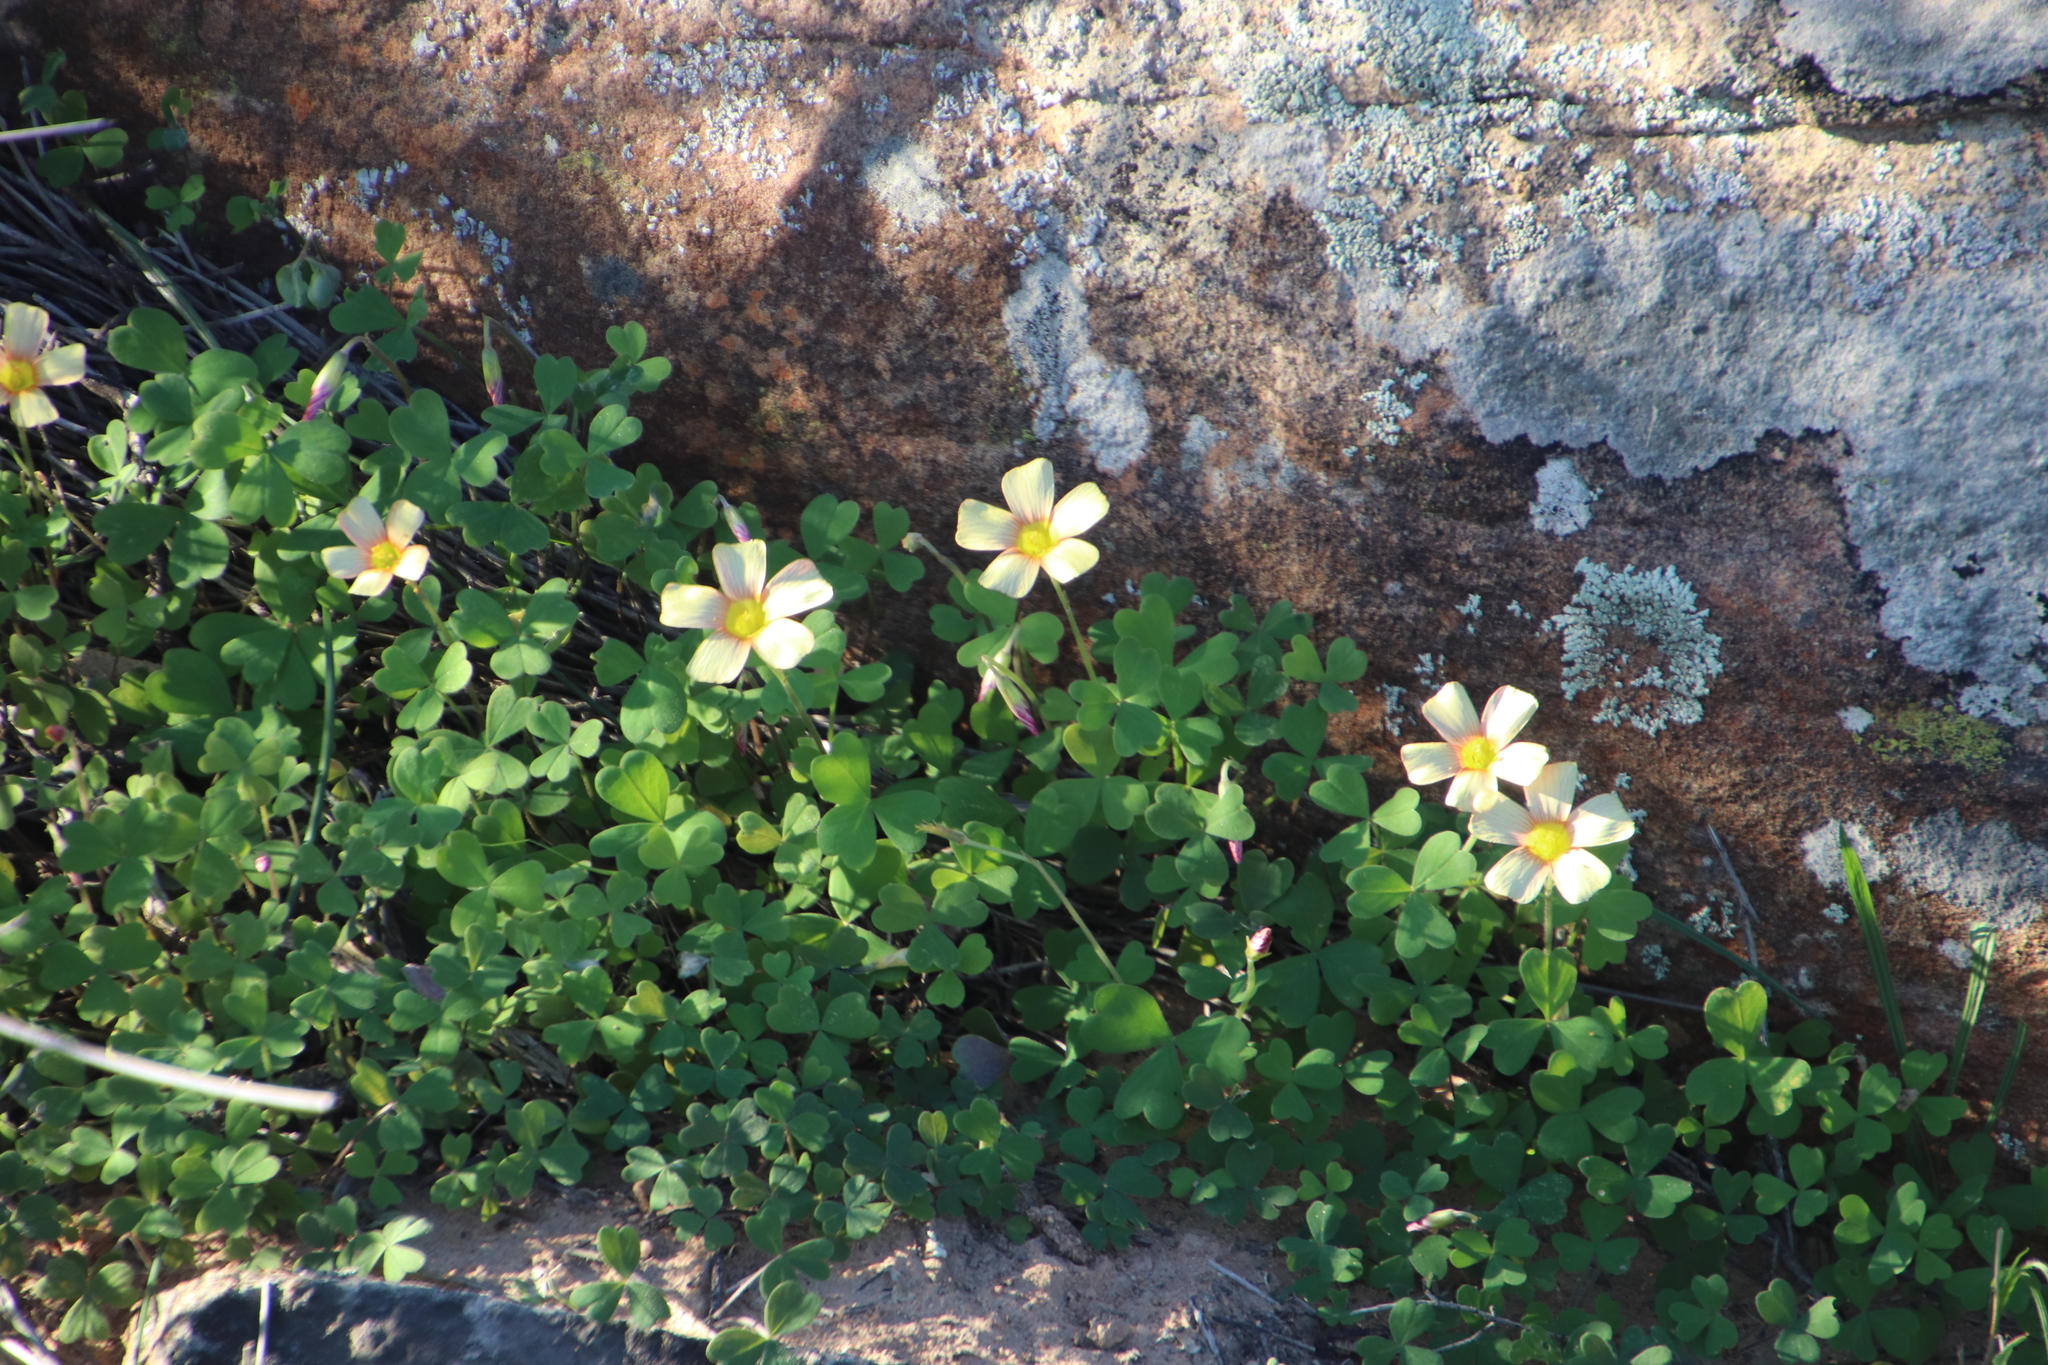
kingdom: Plantae
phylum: Tracheophyta
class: Magnoliopsida
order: Oxalidales
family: Oxalidaceae
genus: Oxalis
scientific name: Oxalis obtusa
